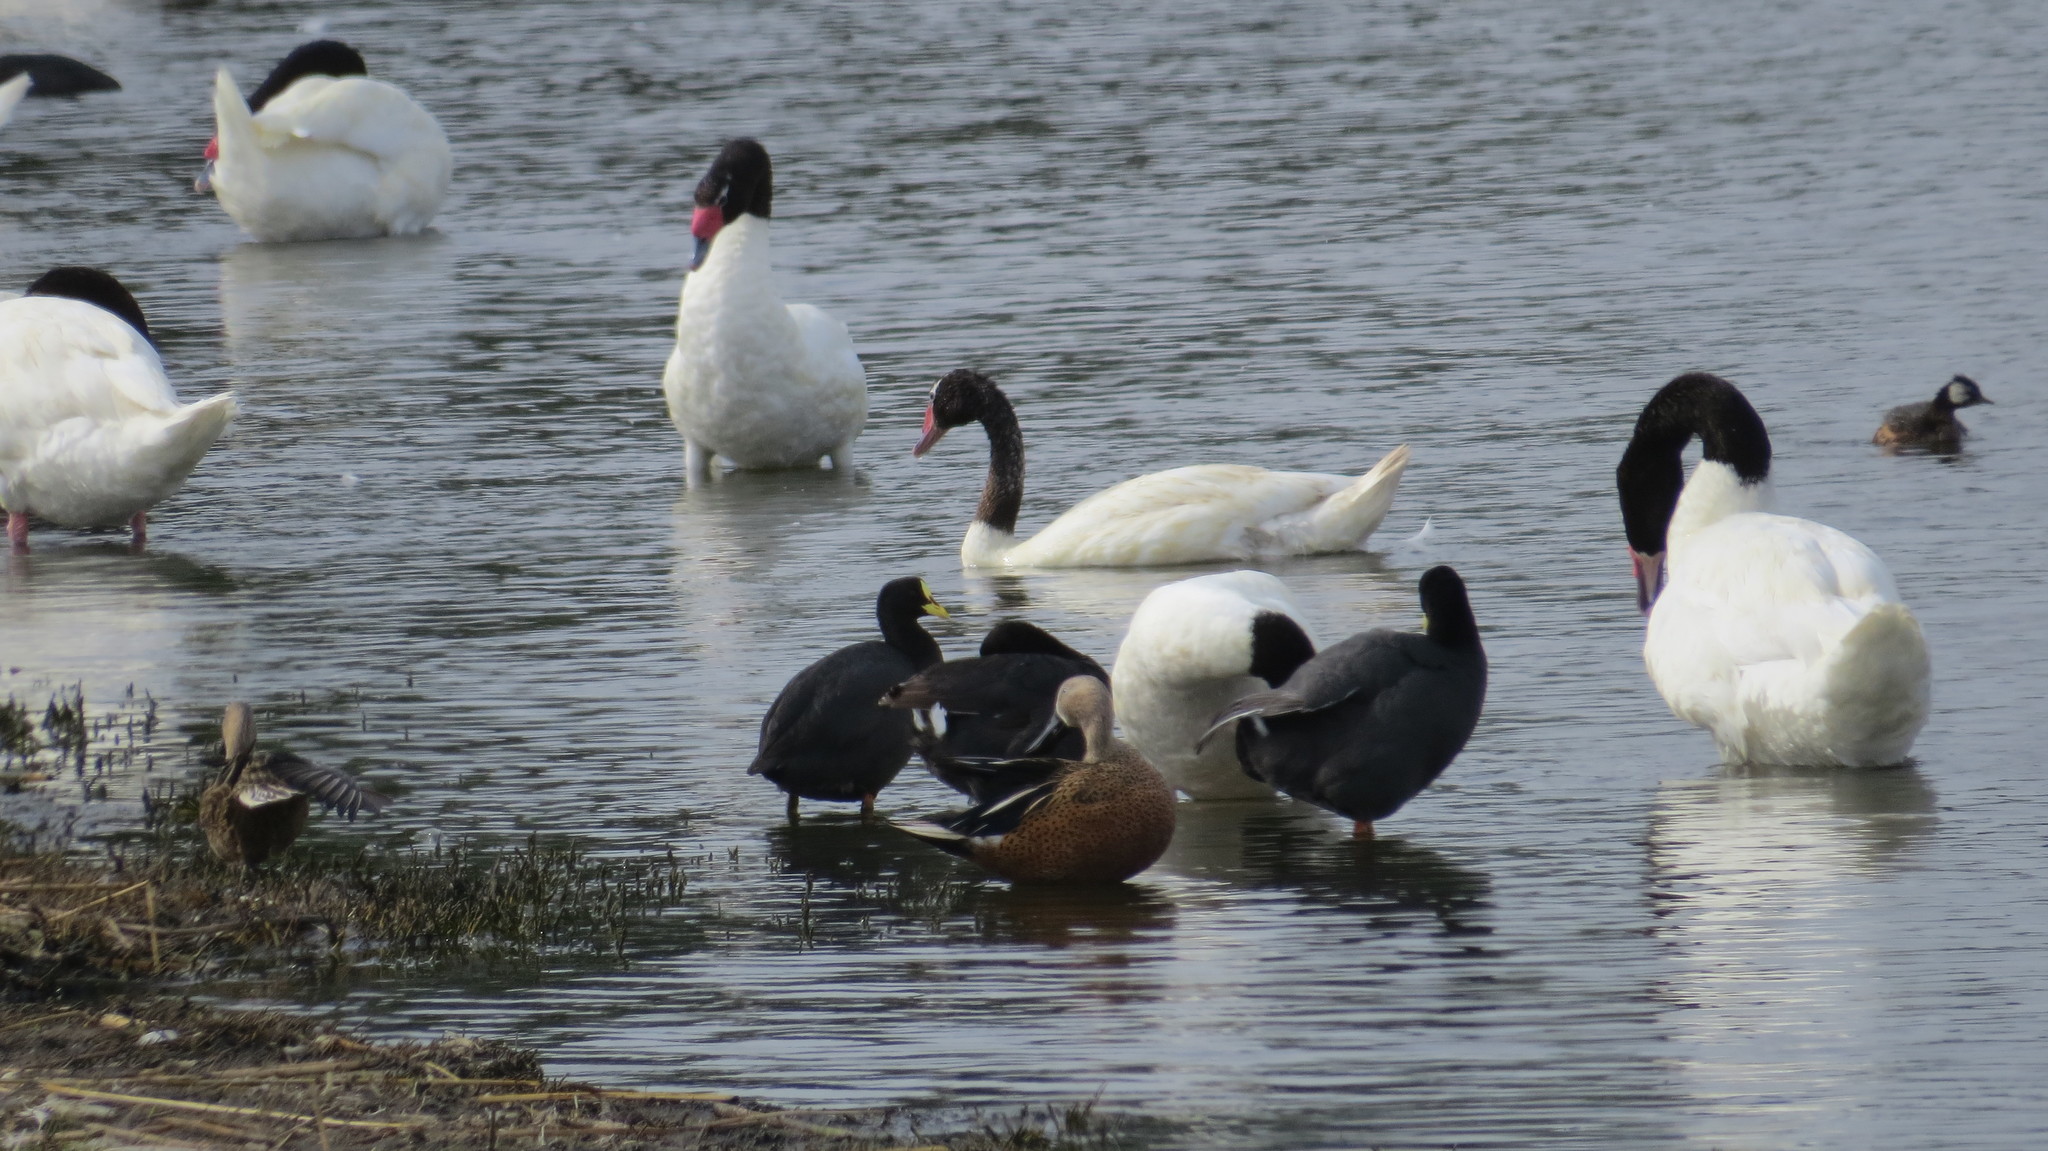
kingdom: Animalia
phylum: Chordata
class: Aves
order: Anseriformes
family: Anatidae
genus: Spatula
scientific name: Spatula platalea
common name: Red shoveler
